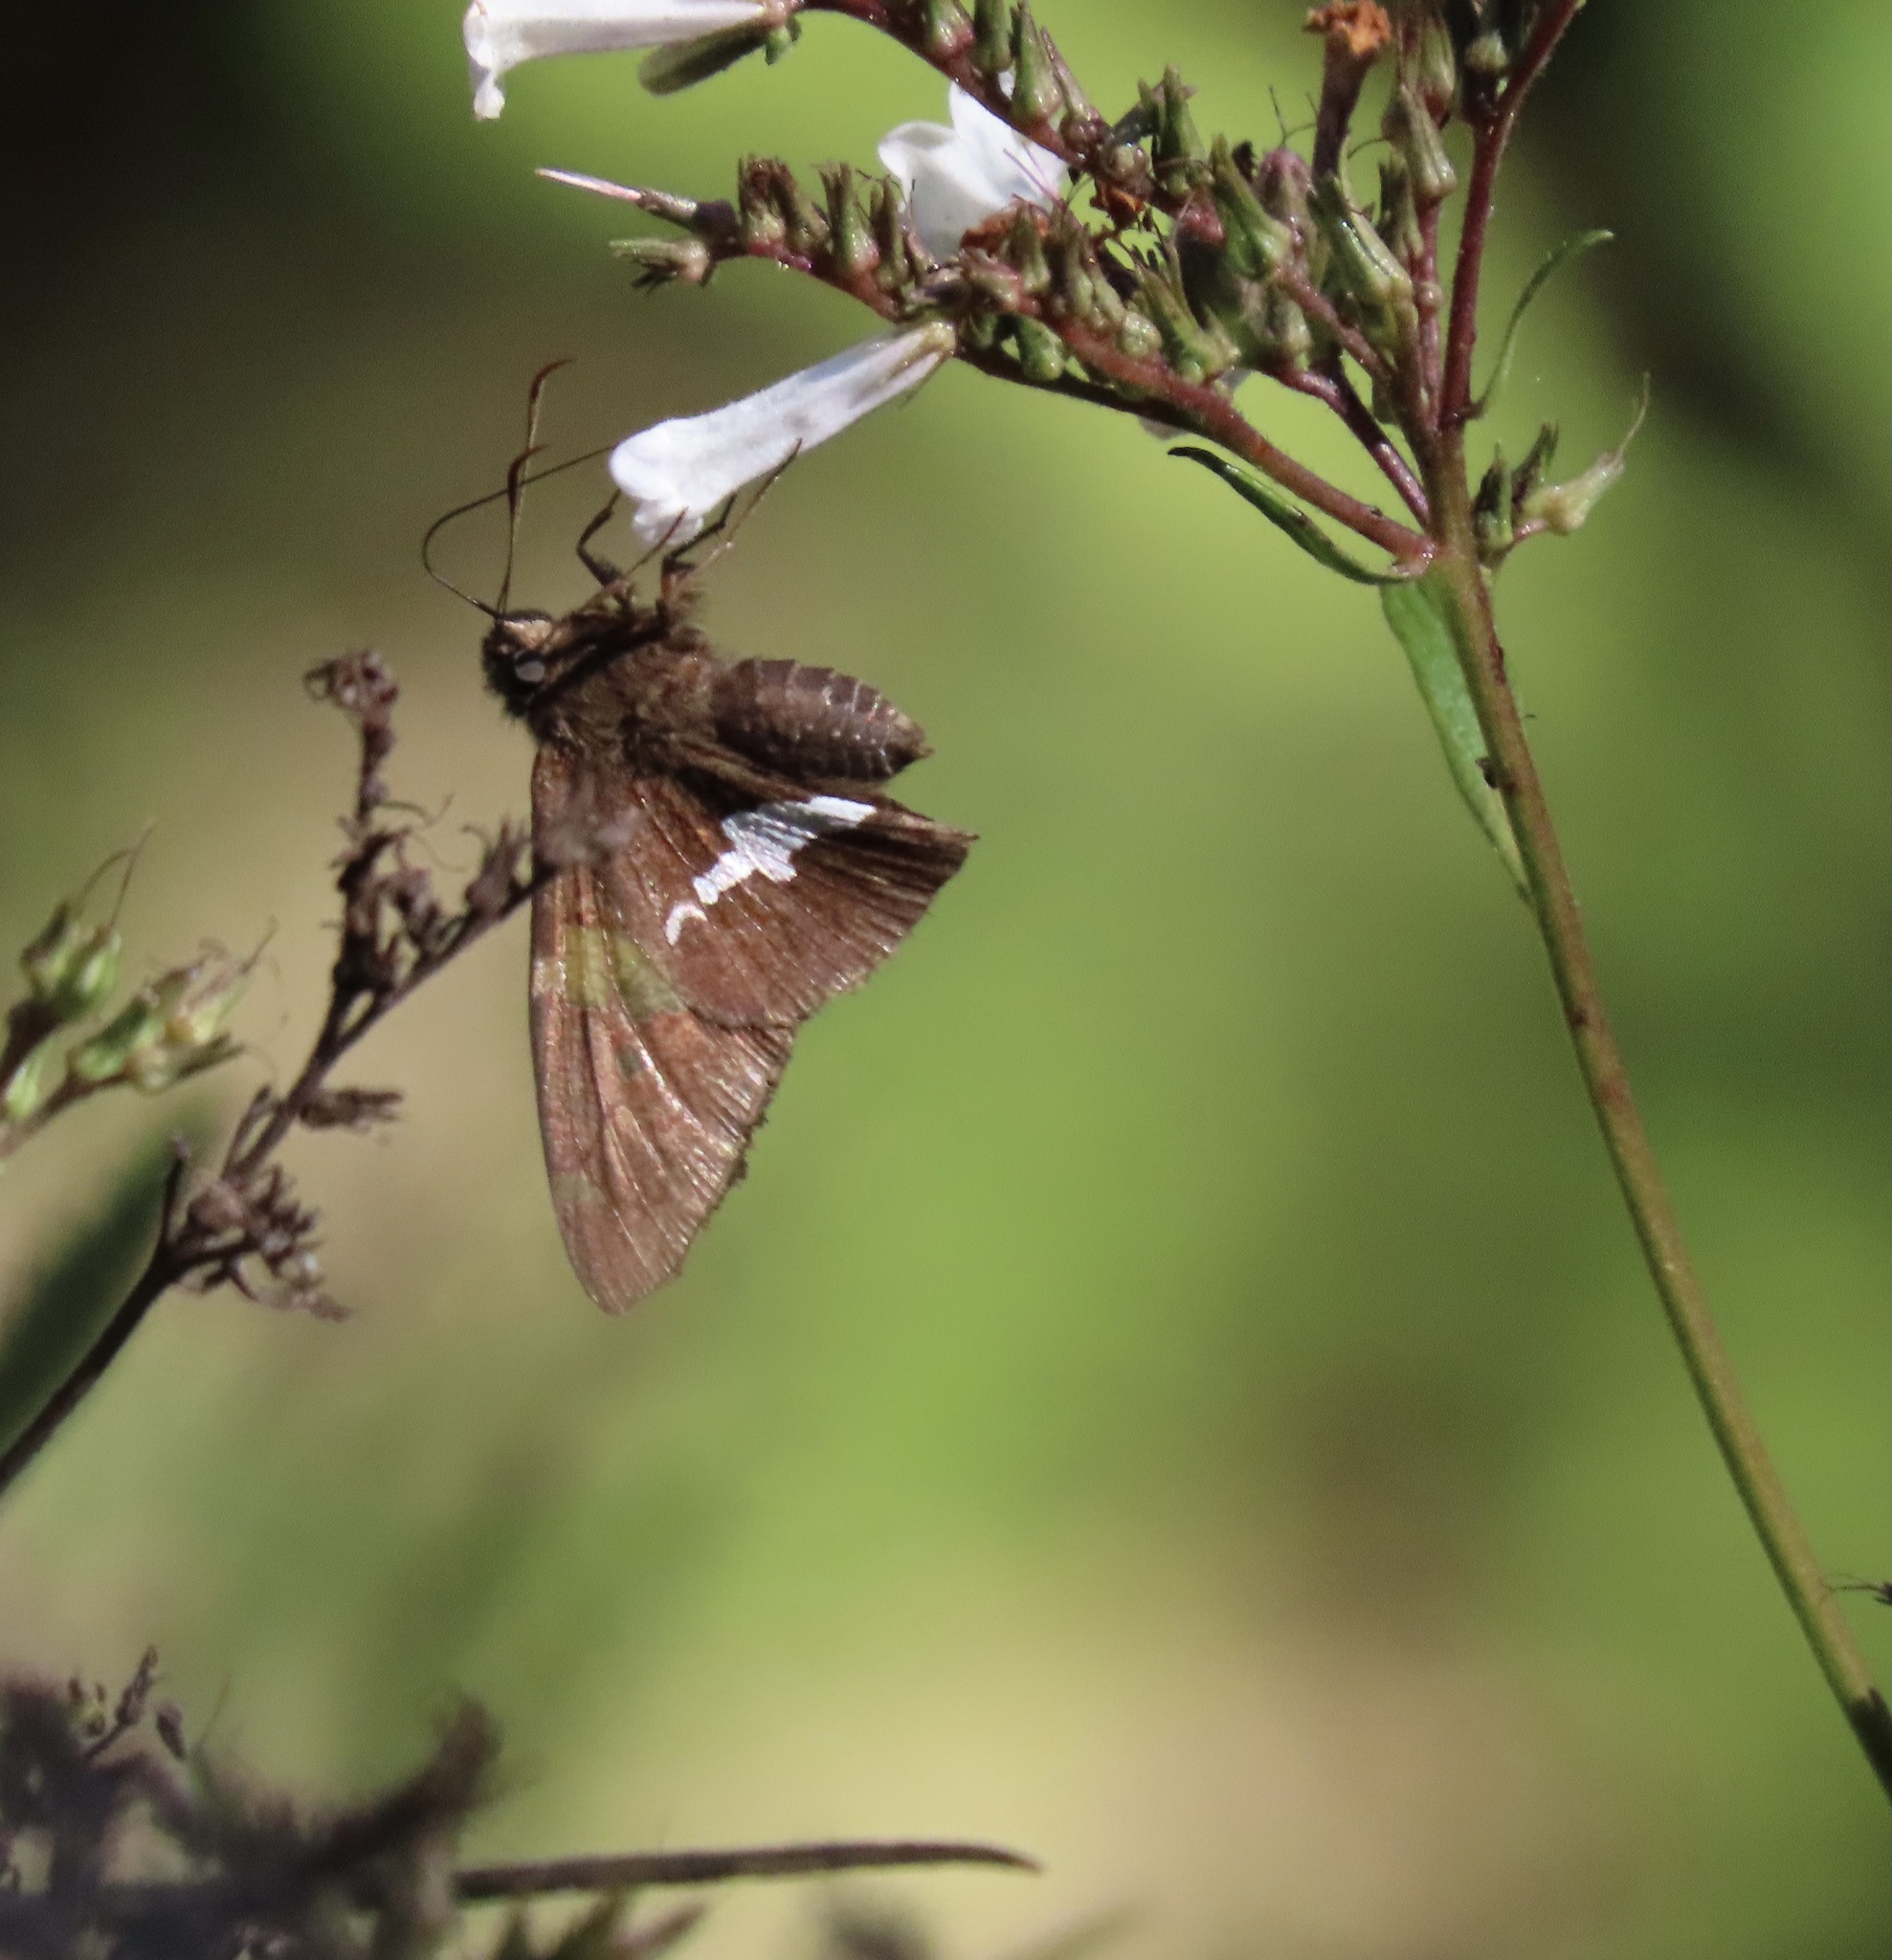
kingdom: Animalia
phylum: Arthropoda
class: Insecta
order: Lepidoptera
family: Hesperiidae
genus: Epargyreus
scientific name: Epargyreus clarus
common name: Silver-spotted skipper
